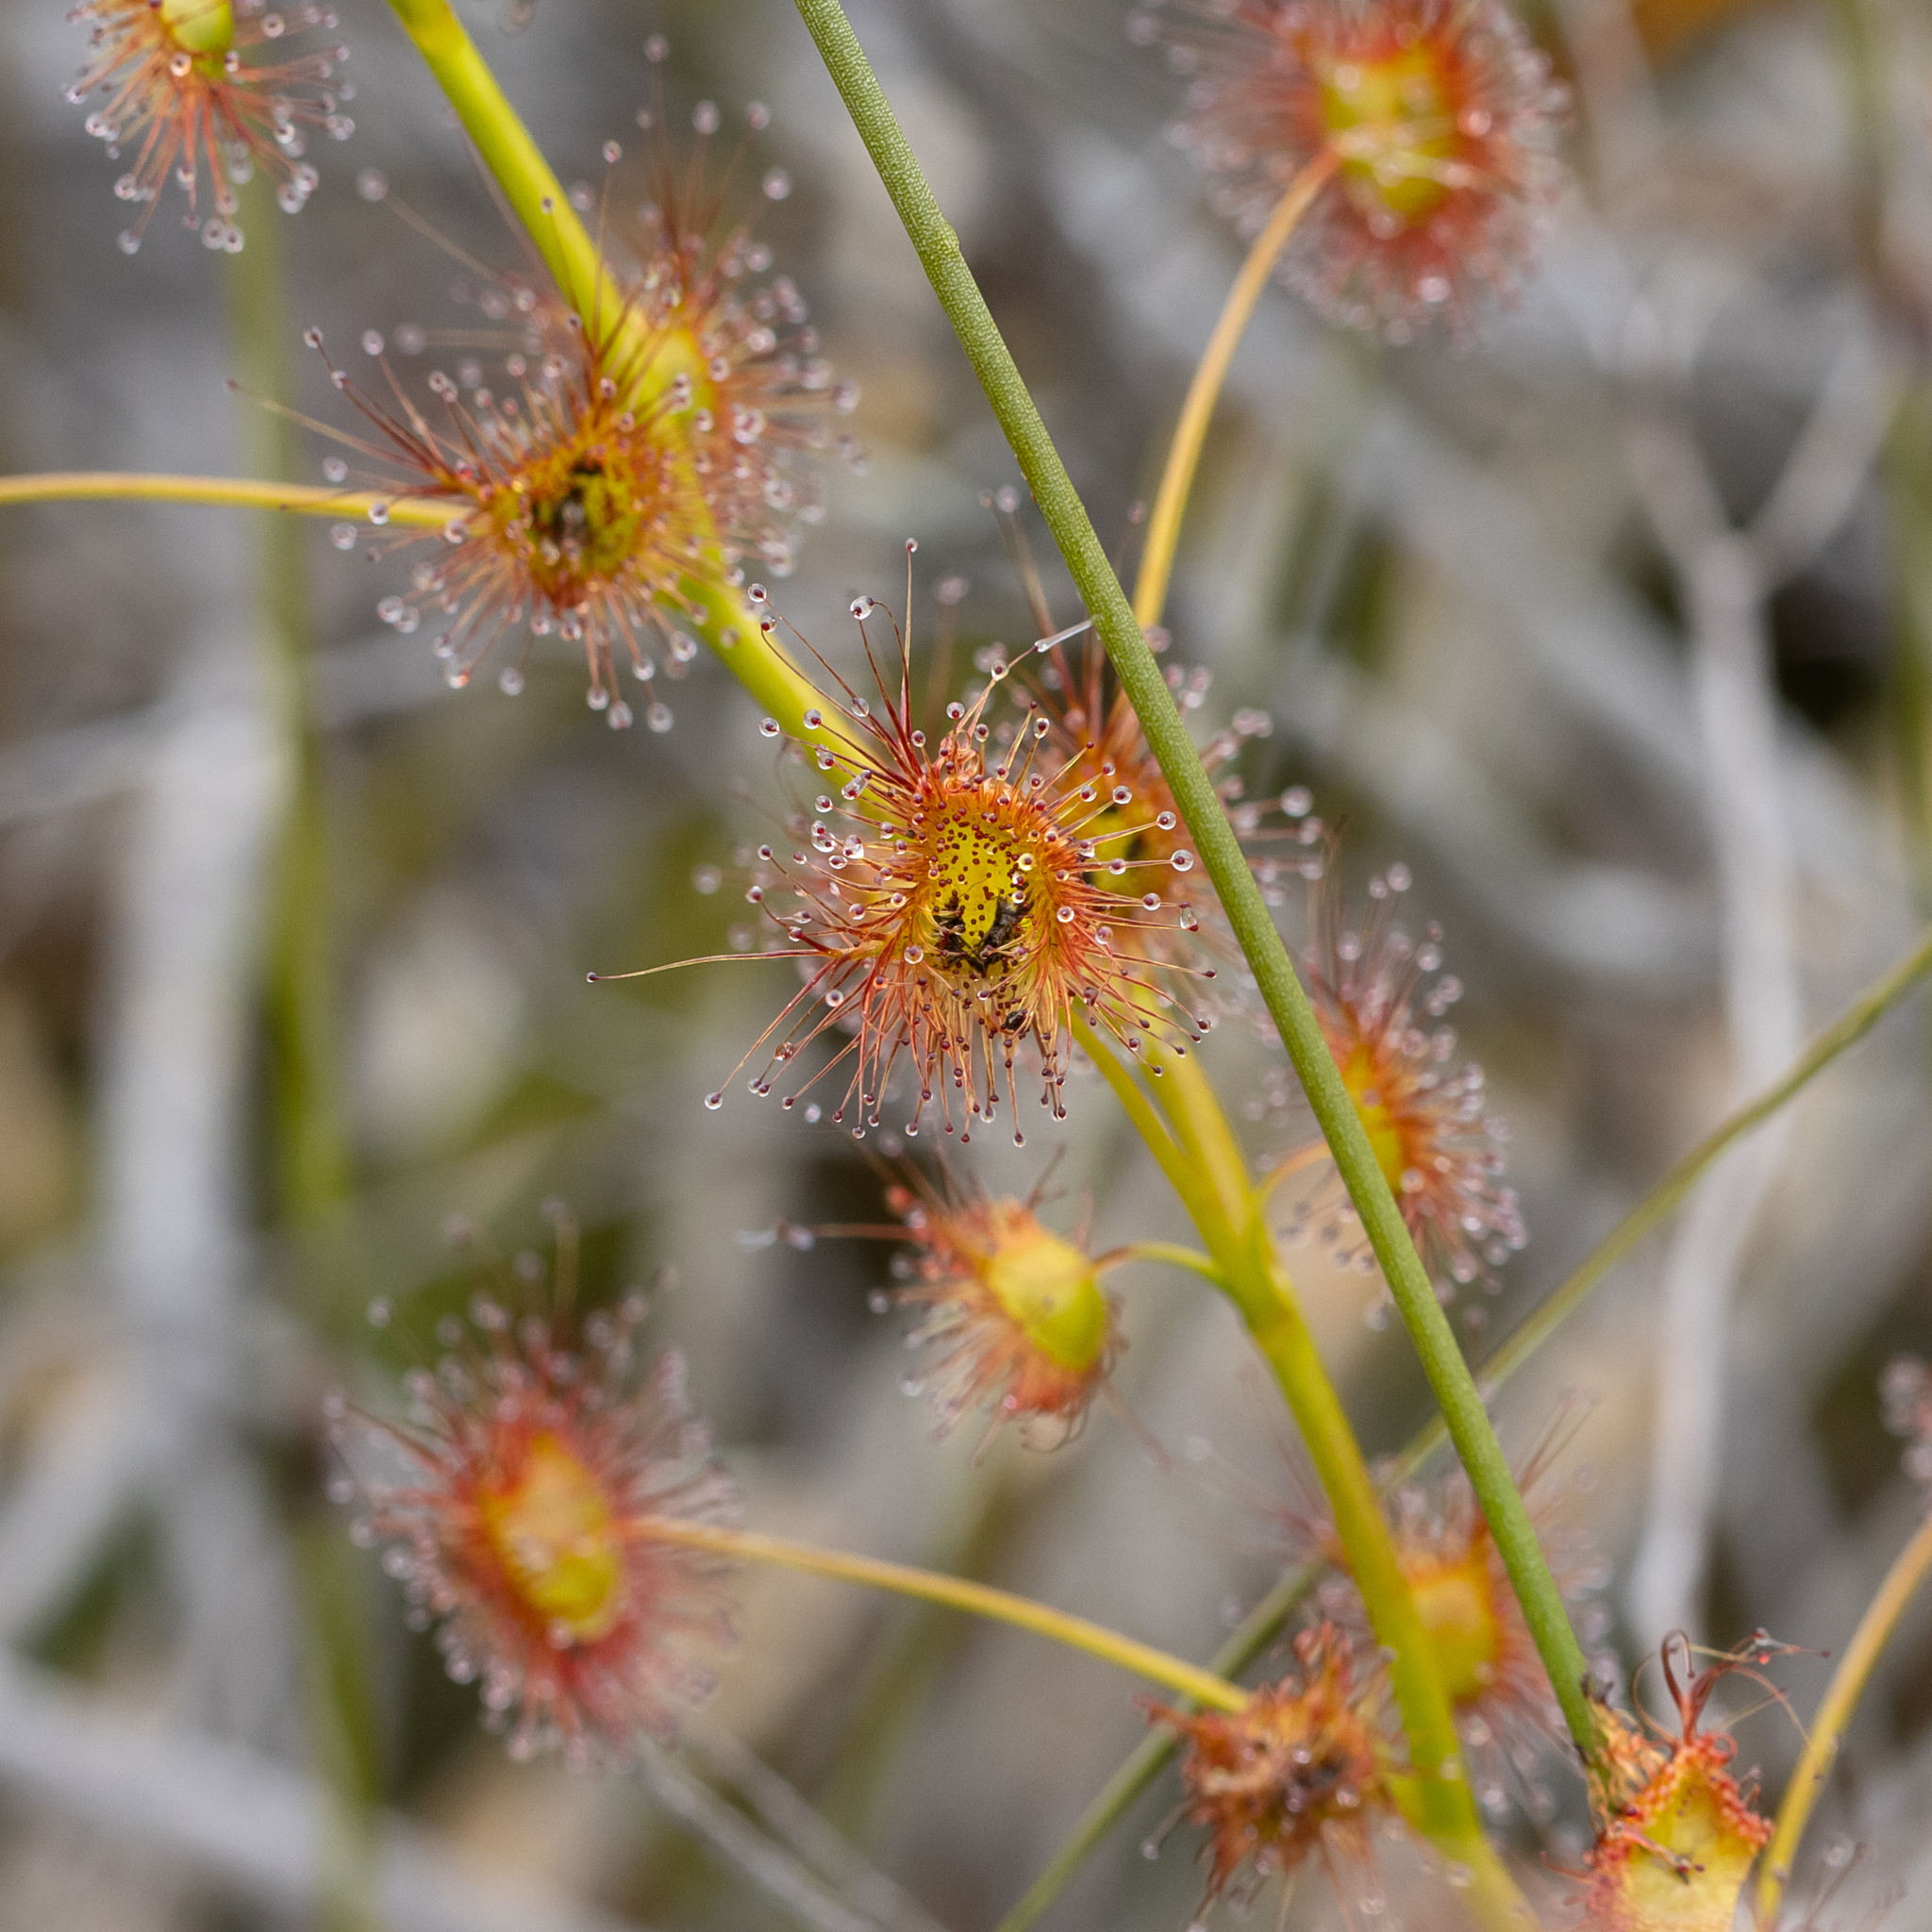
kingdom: Plantae
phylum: Tracheophyta
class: Magnoliopsida
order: Caryophyllales
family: Droseraceae
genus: Drosera
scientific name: Drosera sulphurea
